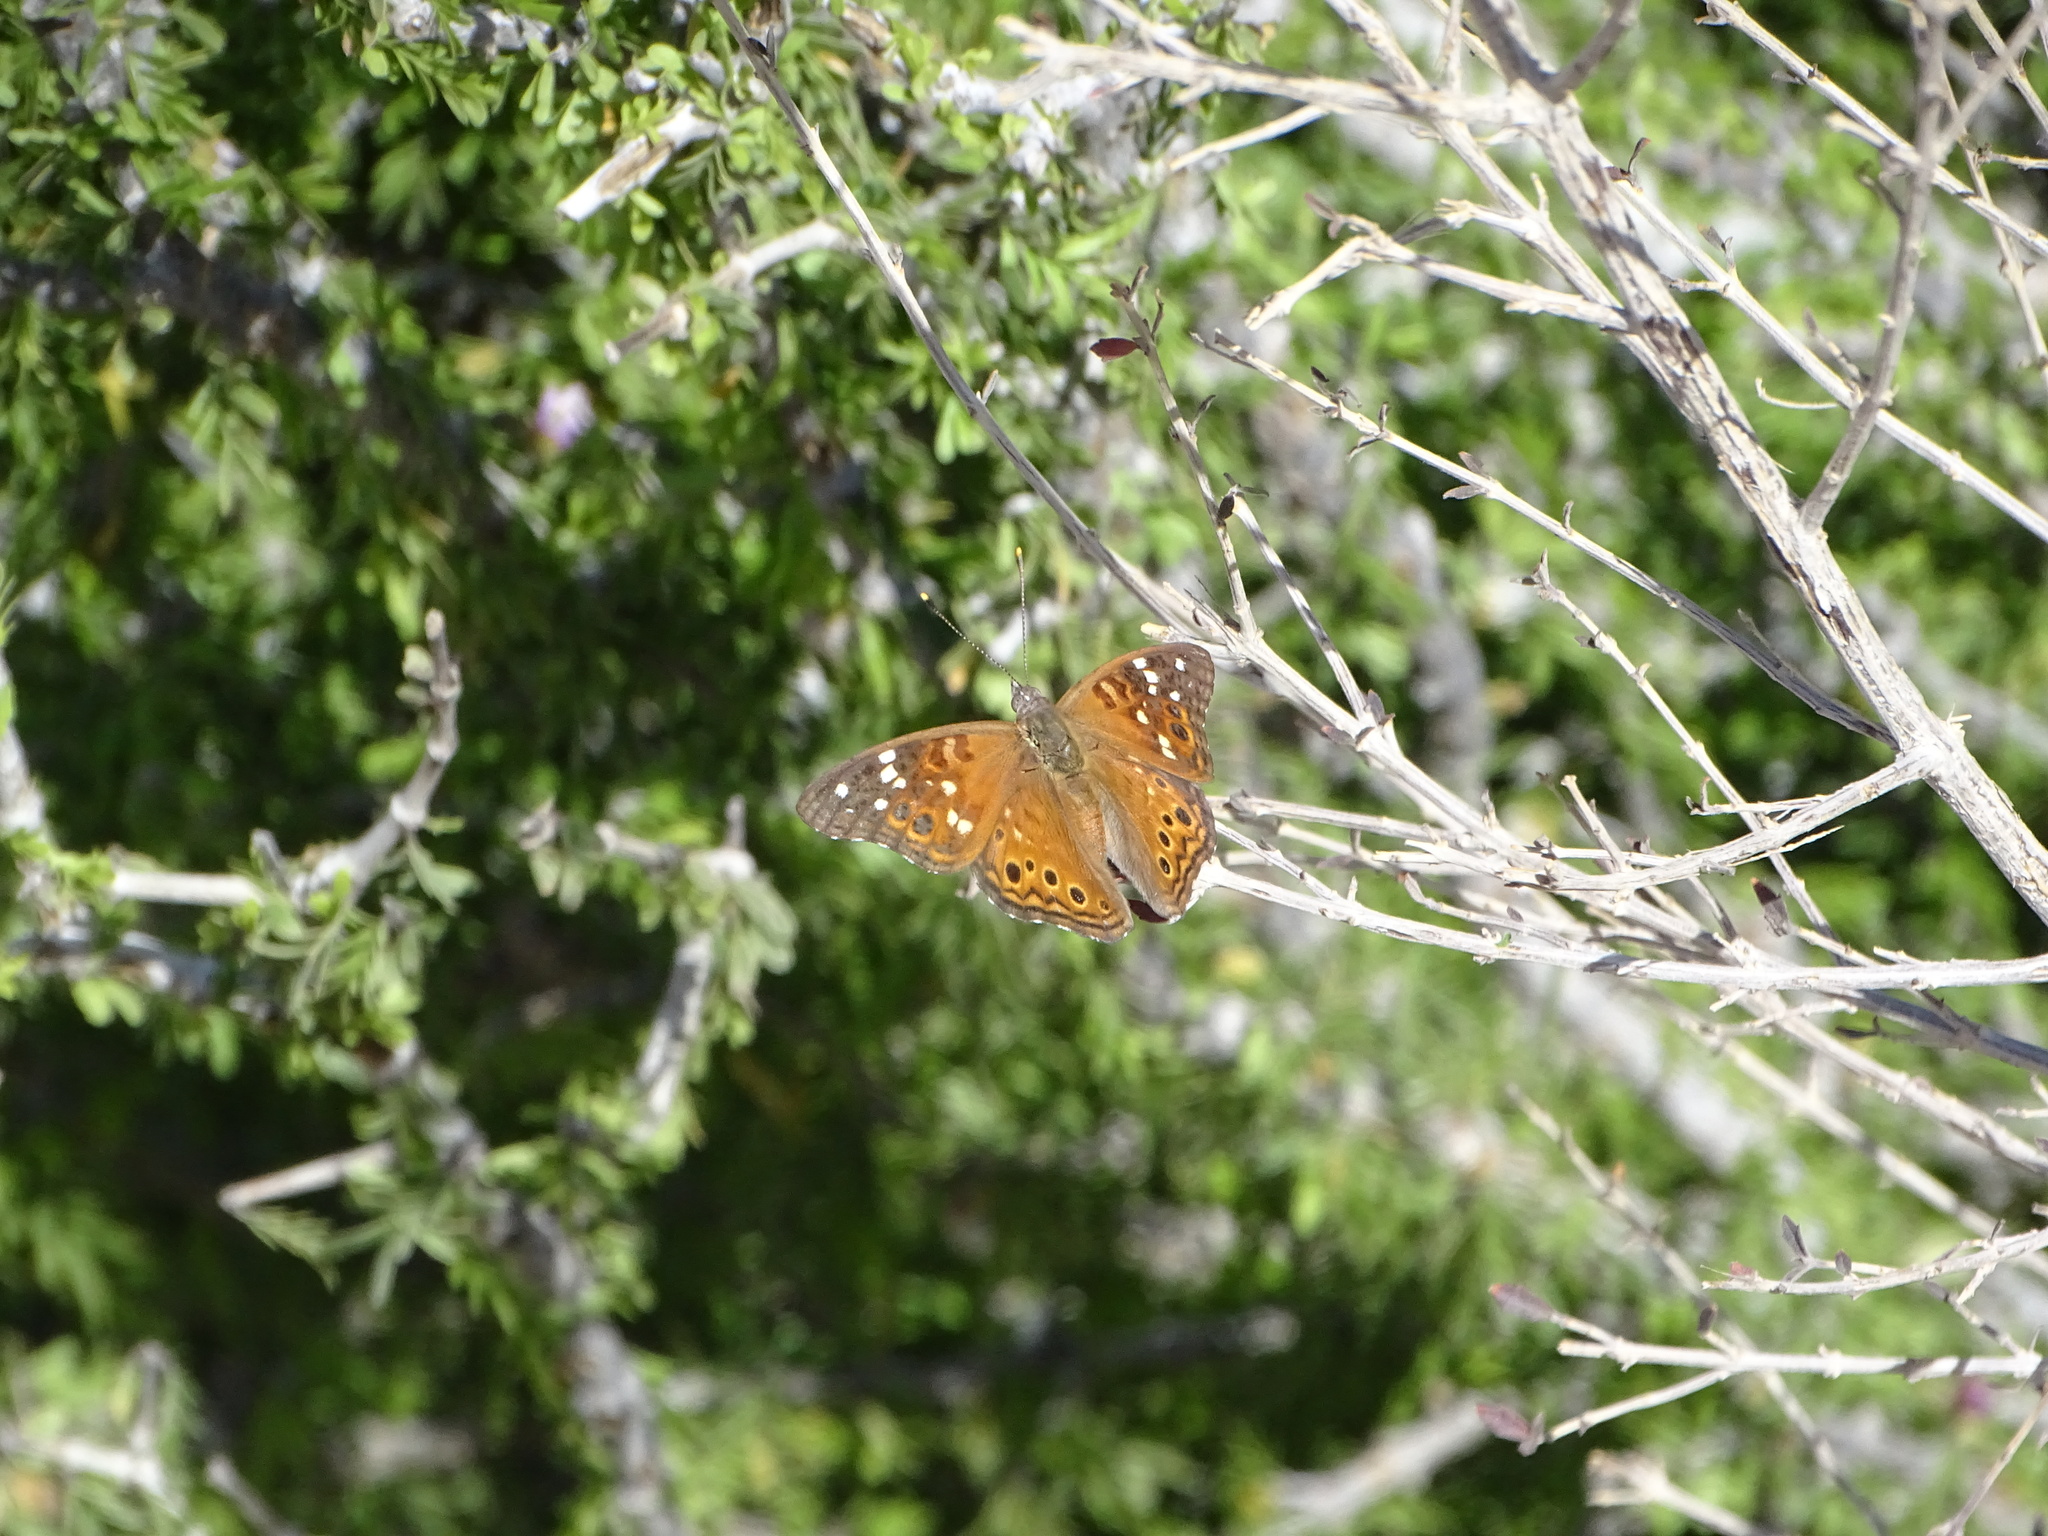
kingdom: Animalia
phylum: Arthropoda
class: Insecta
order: Lepidoptera
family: Nymphalidae
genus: Asterocampa
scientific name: Asterocampa leilia
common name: Empress leilia
